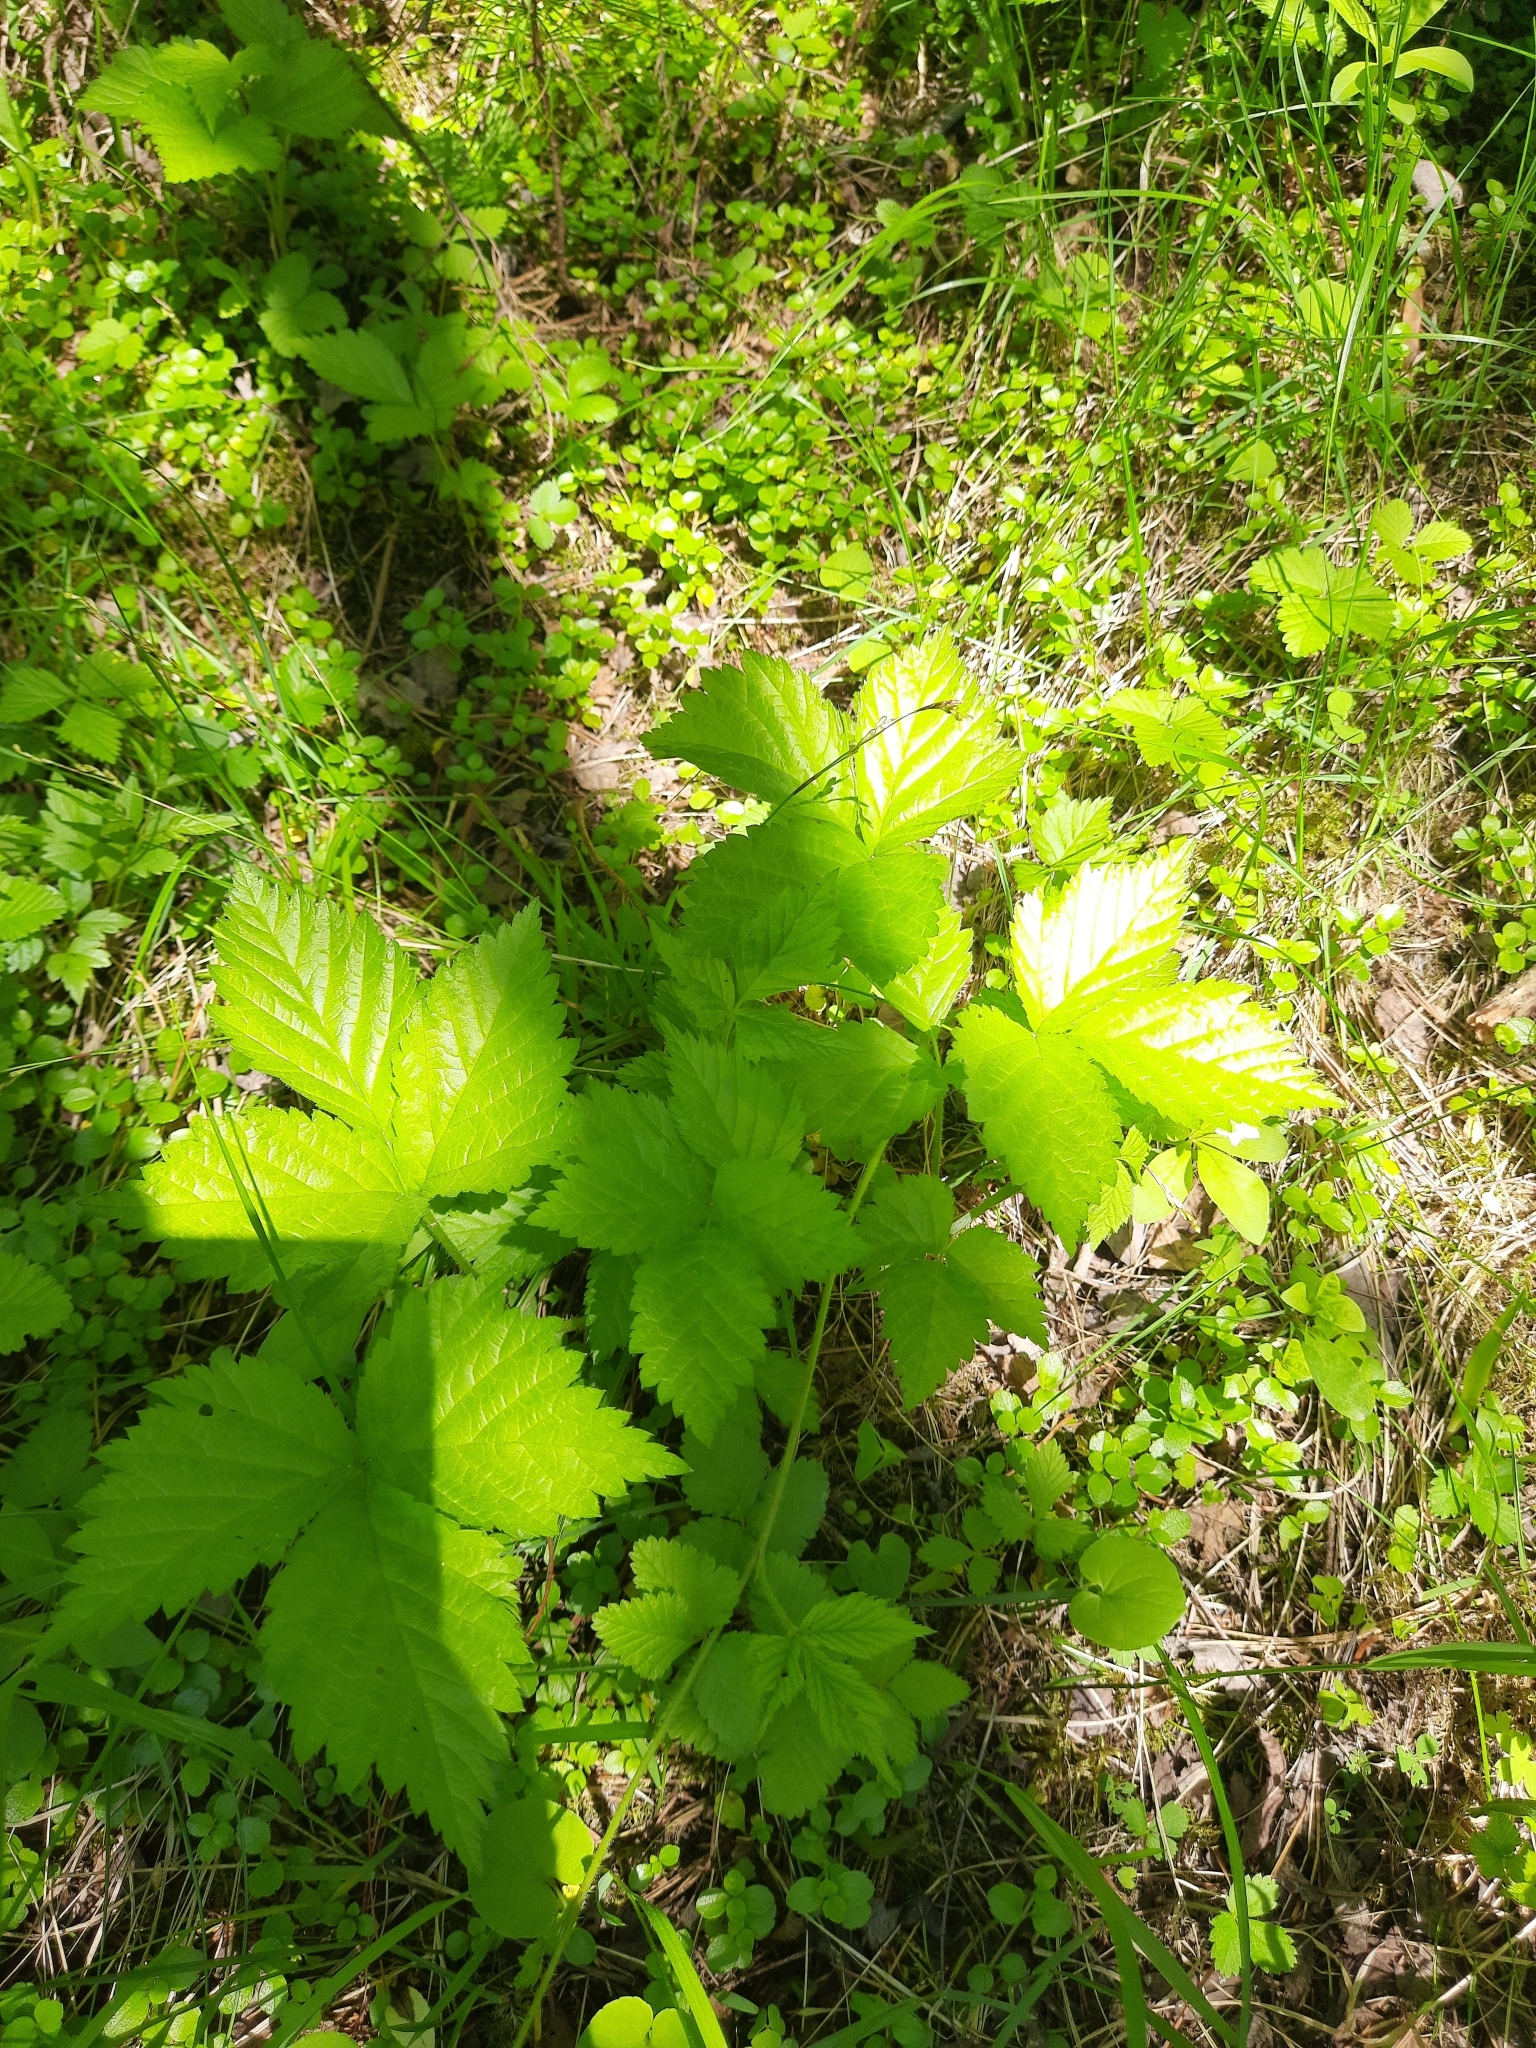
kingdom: Plantae
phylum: Tracheophyta
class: Magnoliopsida
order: Rosales
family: Rosaceae
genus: Rubus
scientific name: Rubus saxatilis
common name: Stone bramble
